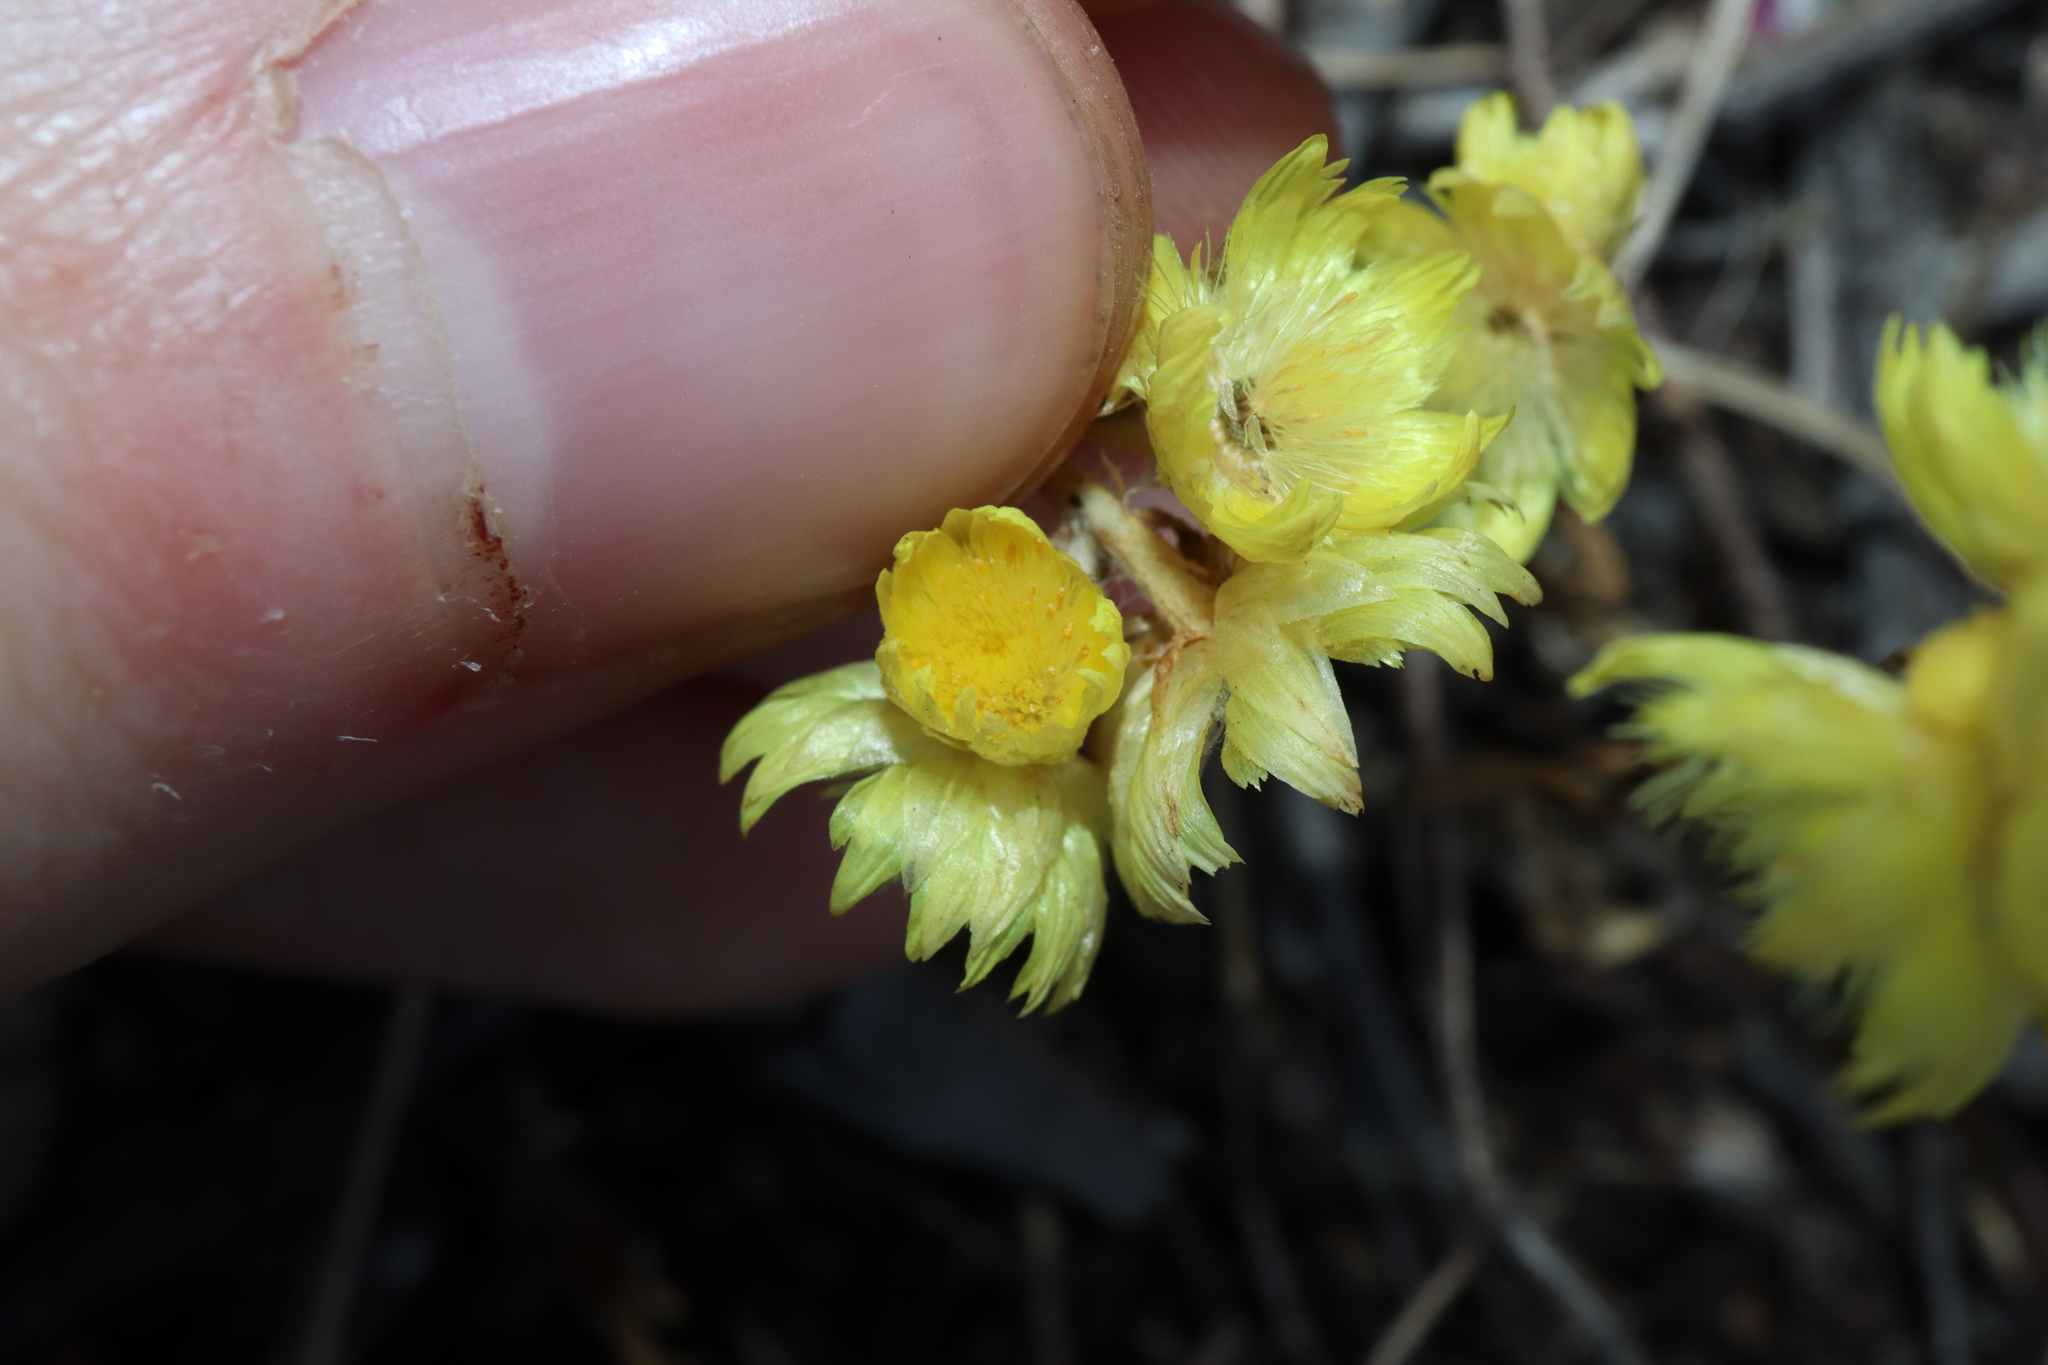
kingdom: Plantae
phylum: Tracheophyta
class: Magnoliopsida
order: Asterales
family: Asteraceae
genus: Rhodanthe
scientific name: Rhodanthe citrina
